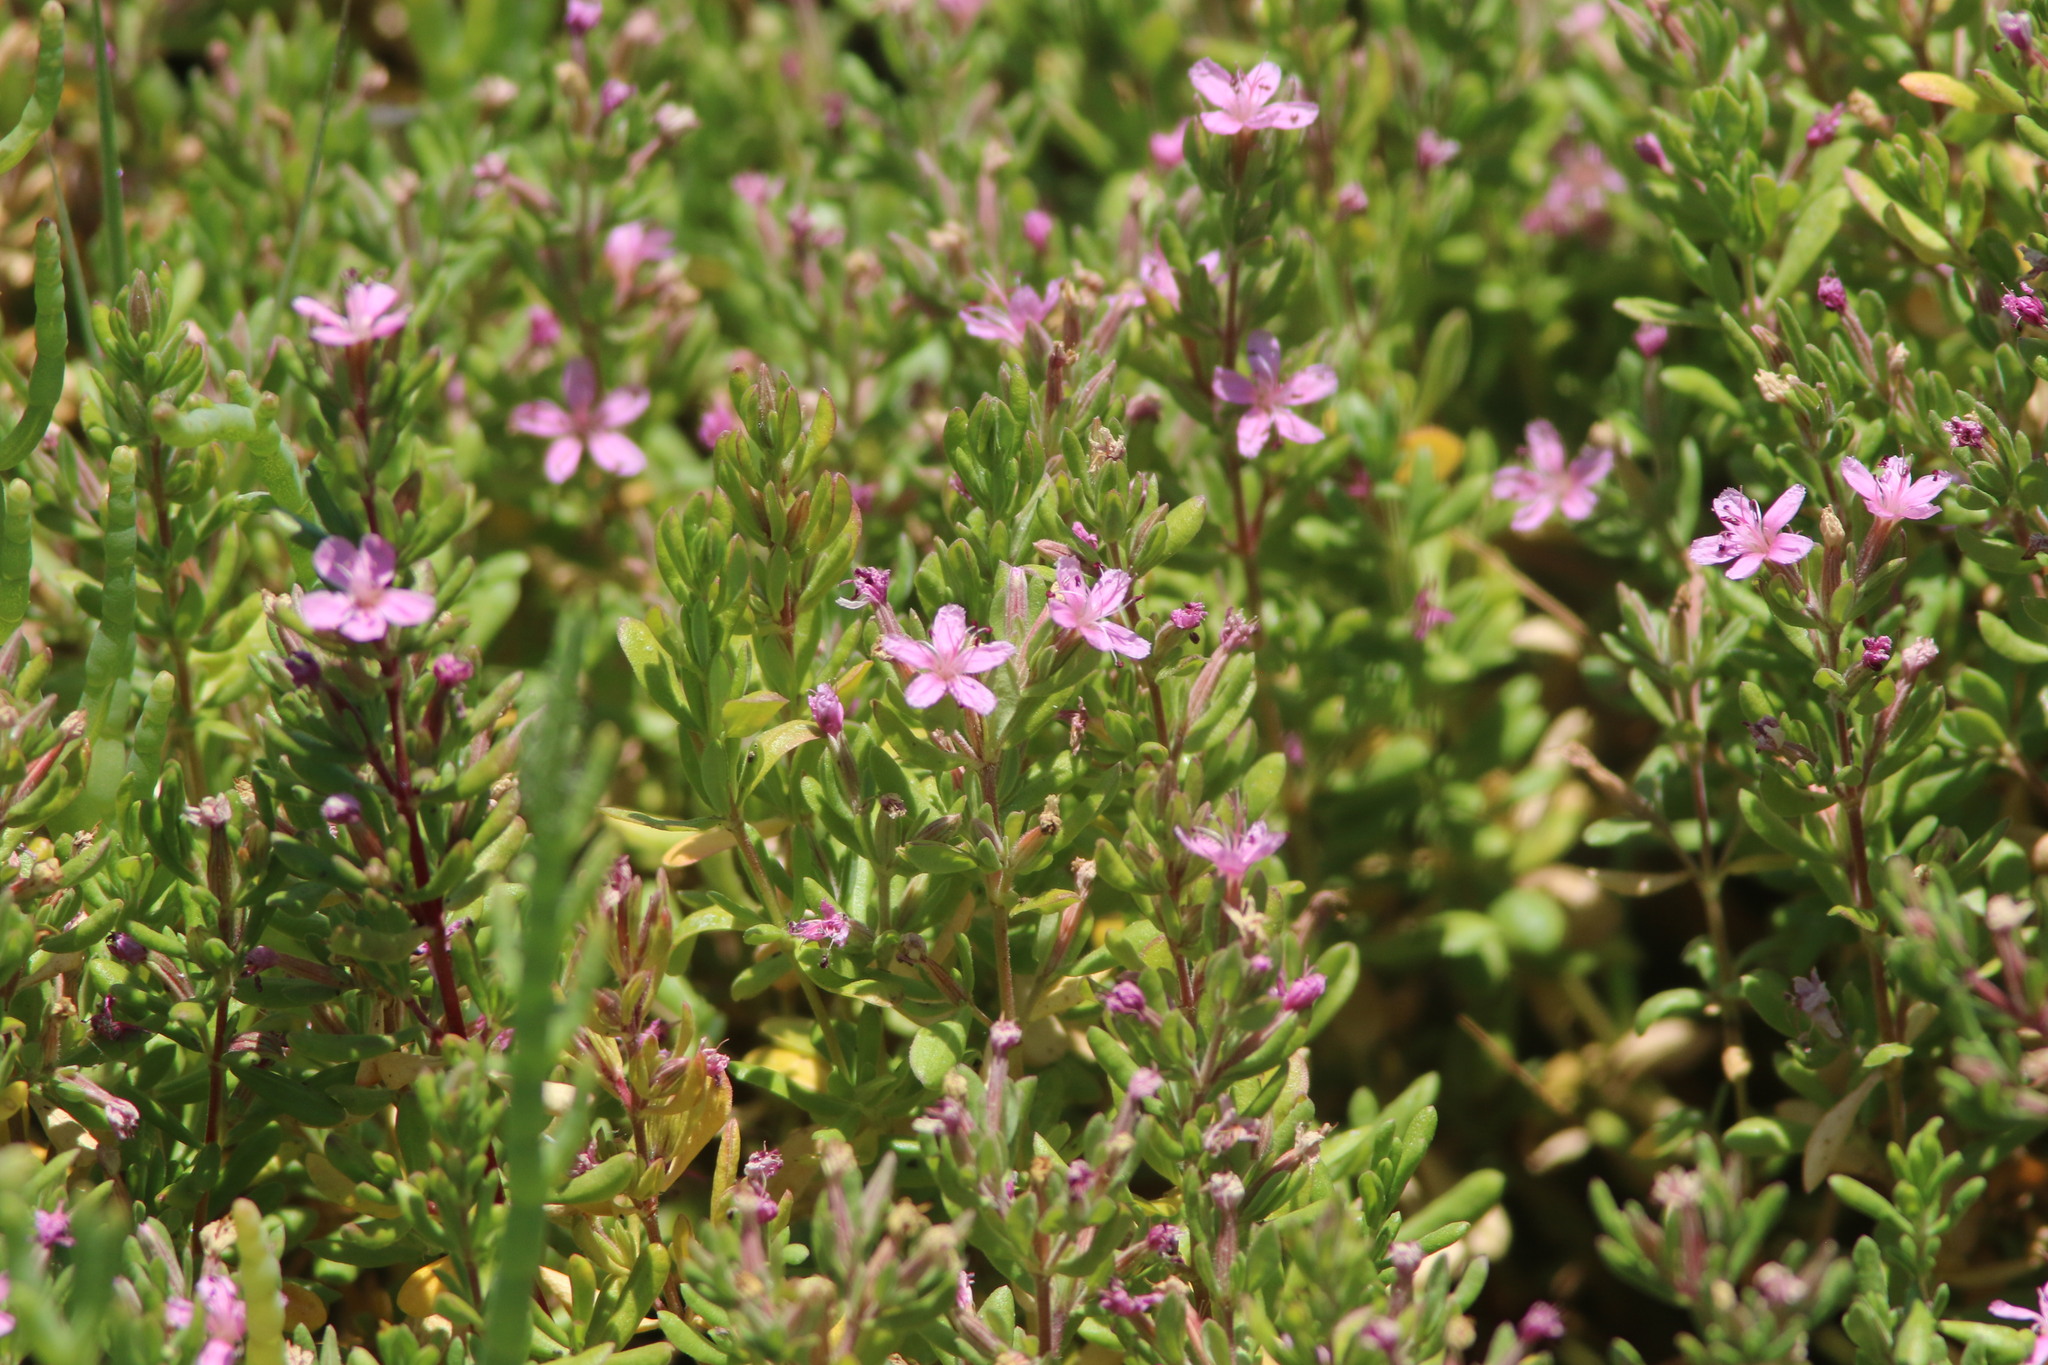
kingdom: Plantae
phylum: Tracheophyta
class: Magnoliopsida
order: Caryophyllales
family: Frankeniaceae
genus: Frankenia
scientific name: Frankenia salina
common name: Alkali seaheath
